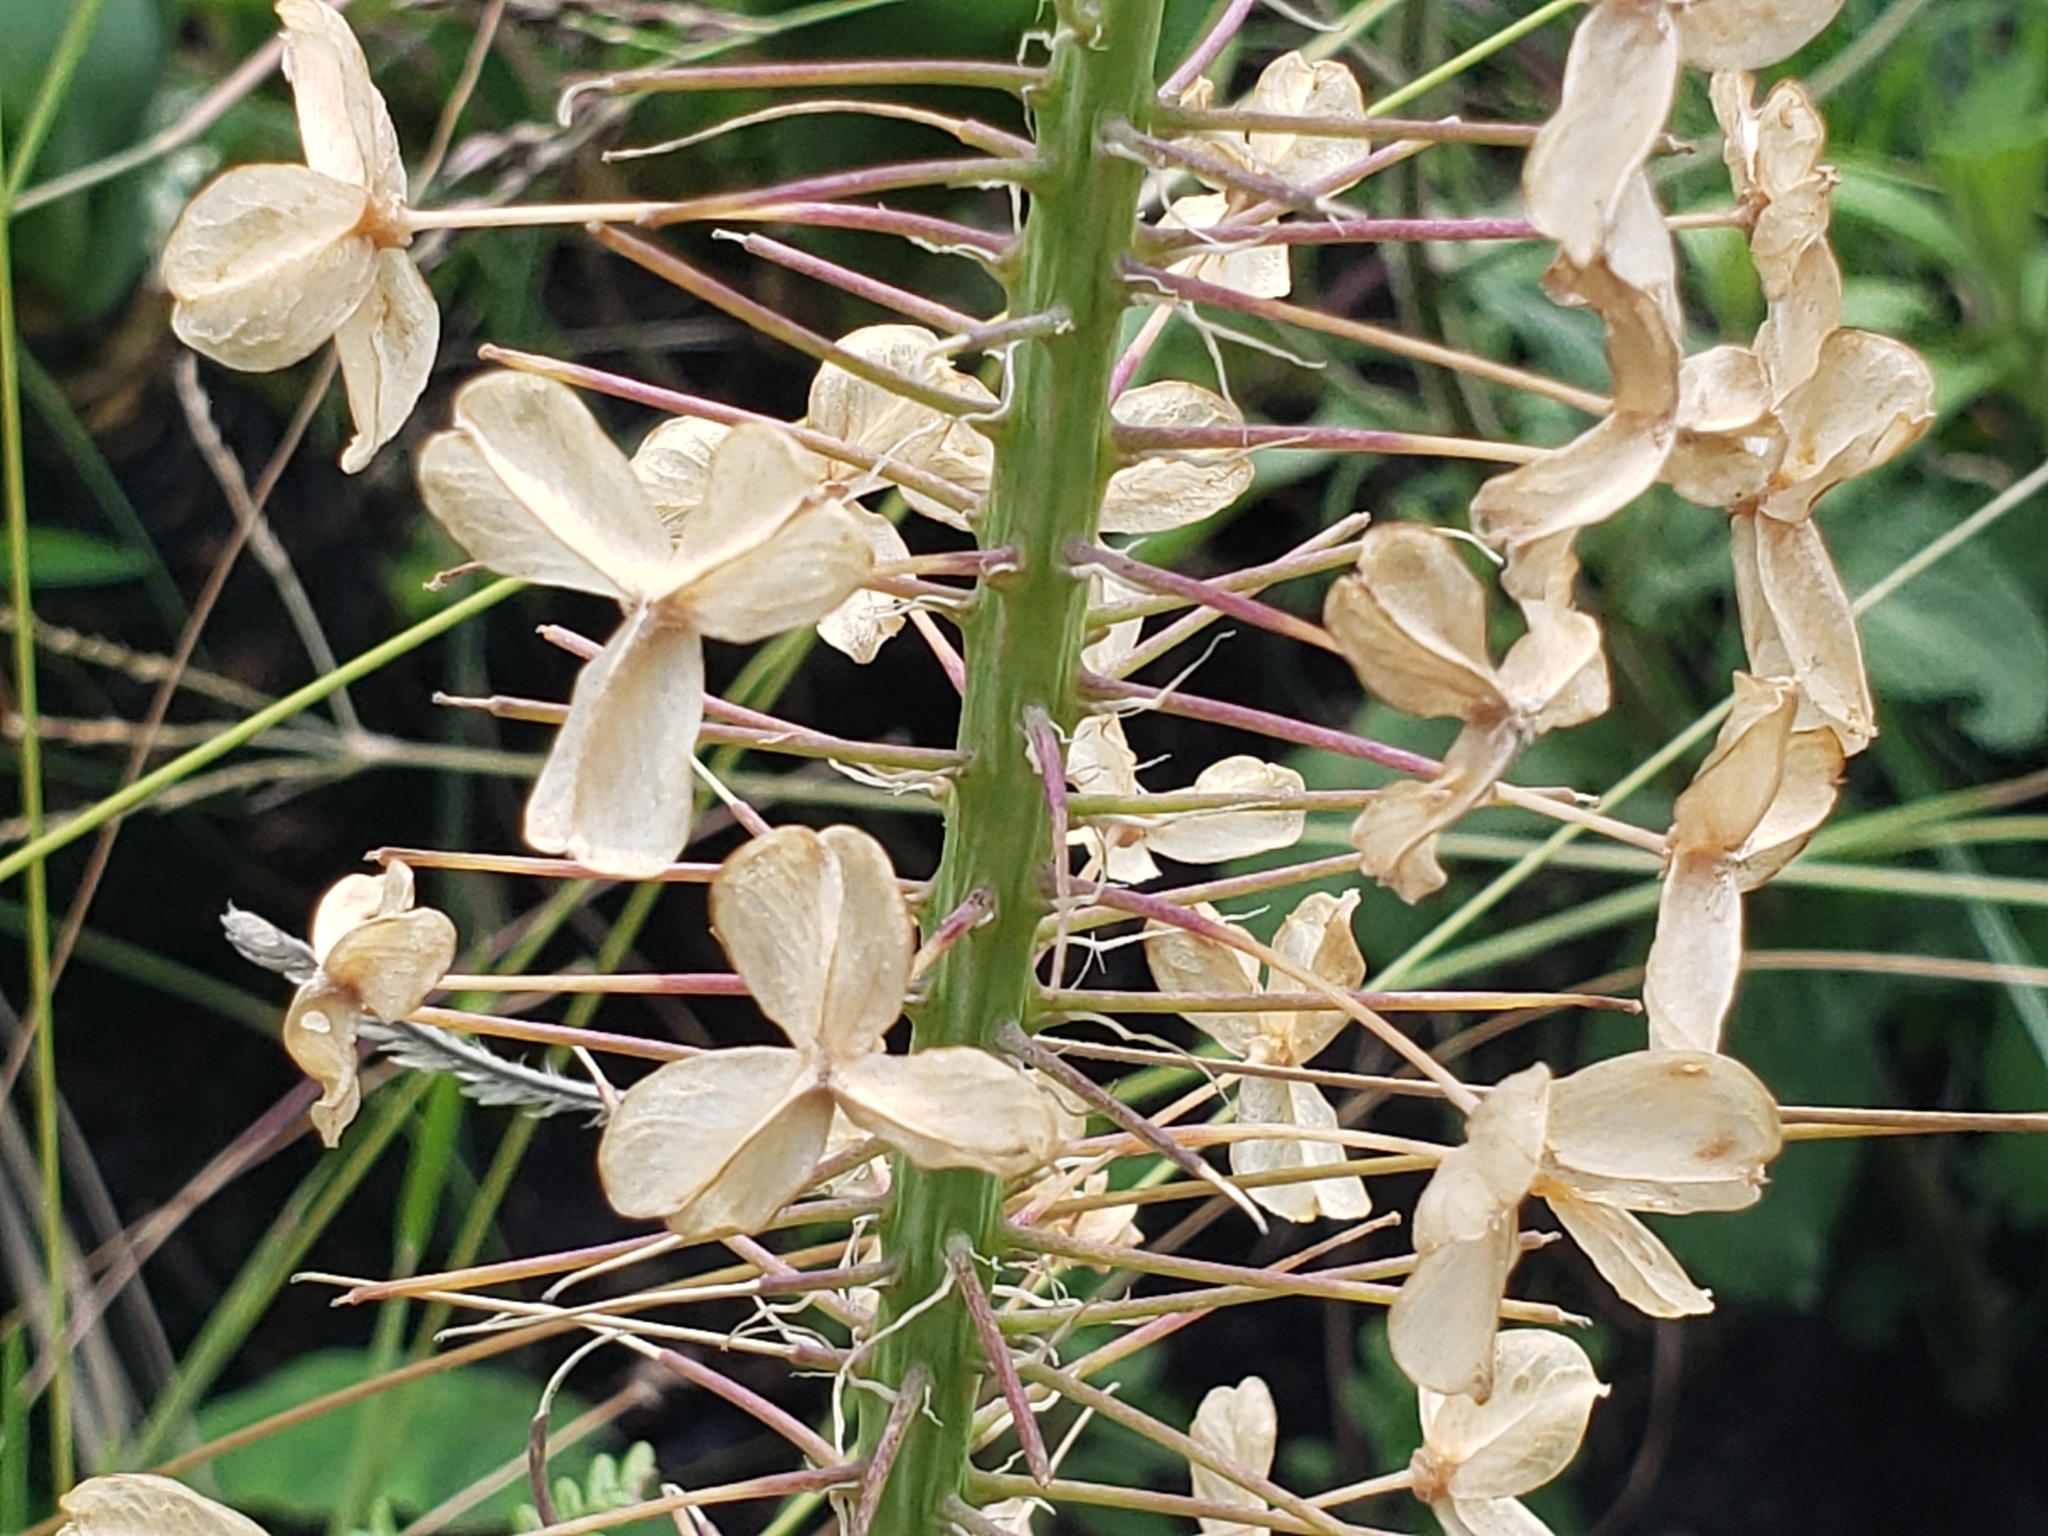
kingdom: Plantae
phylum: Tracheophyta
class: Liliopsida
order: Asparagales
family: Asparagaceae
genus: Merwilla
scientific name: Merwilla plumbea
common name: Blue-squill
